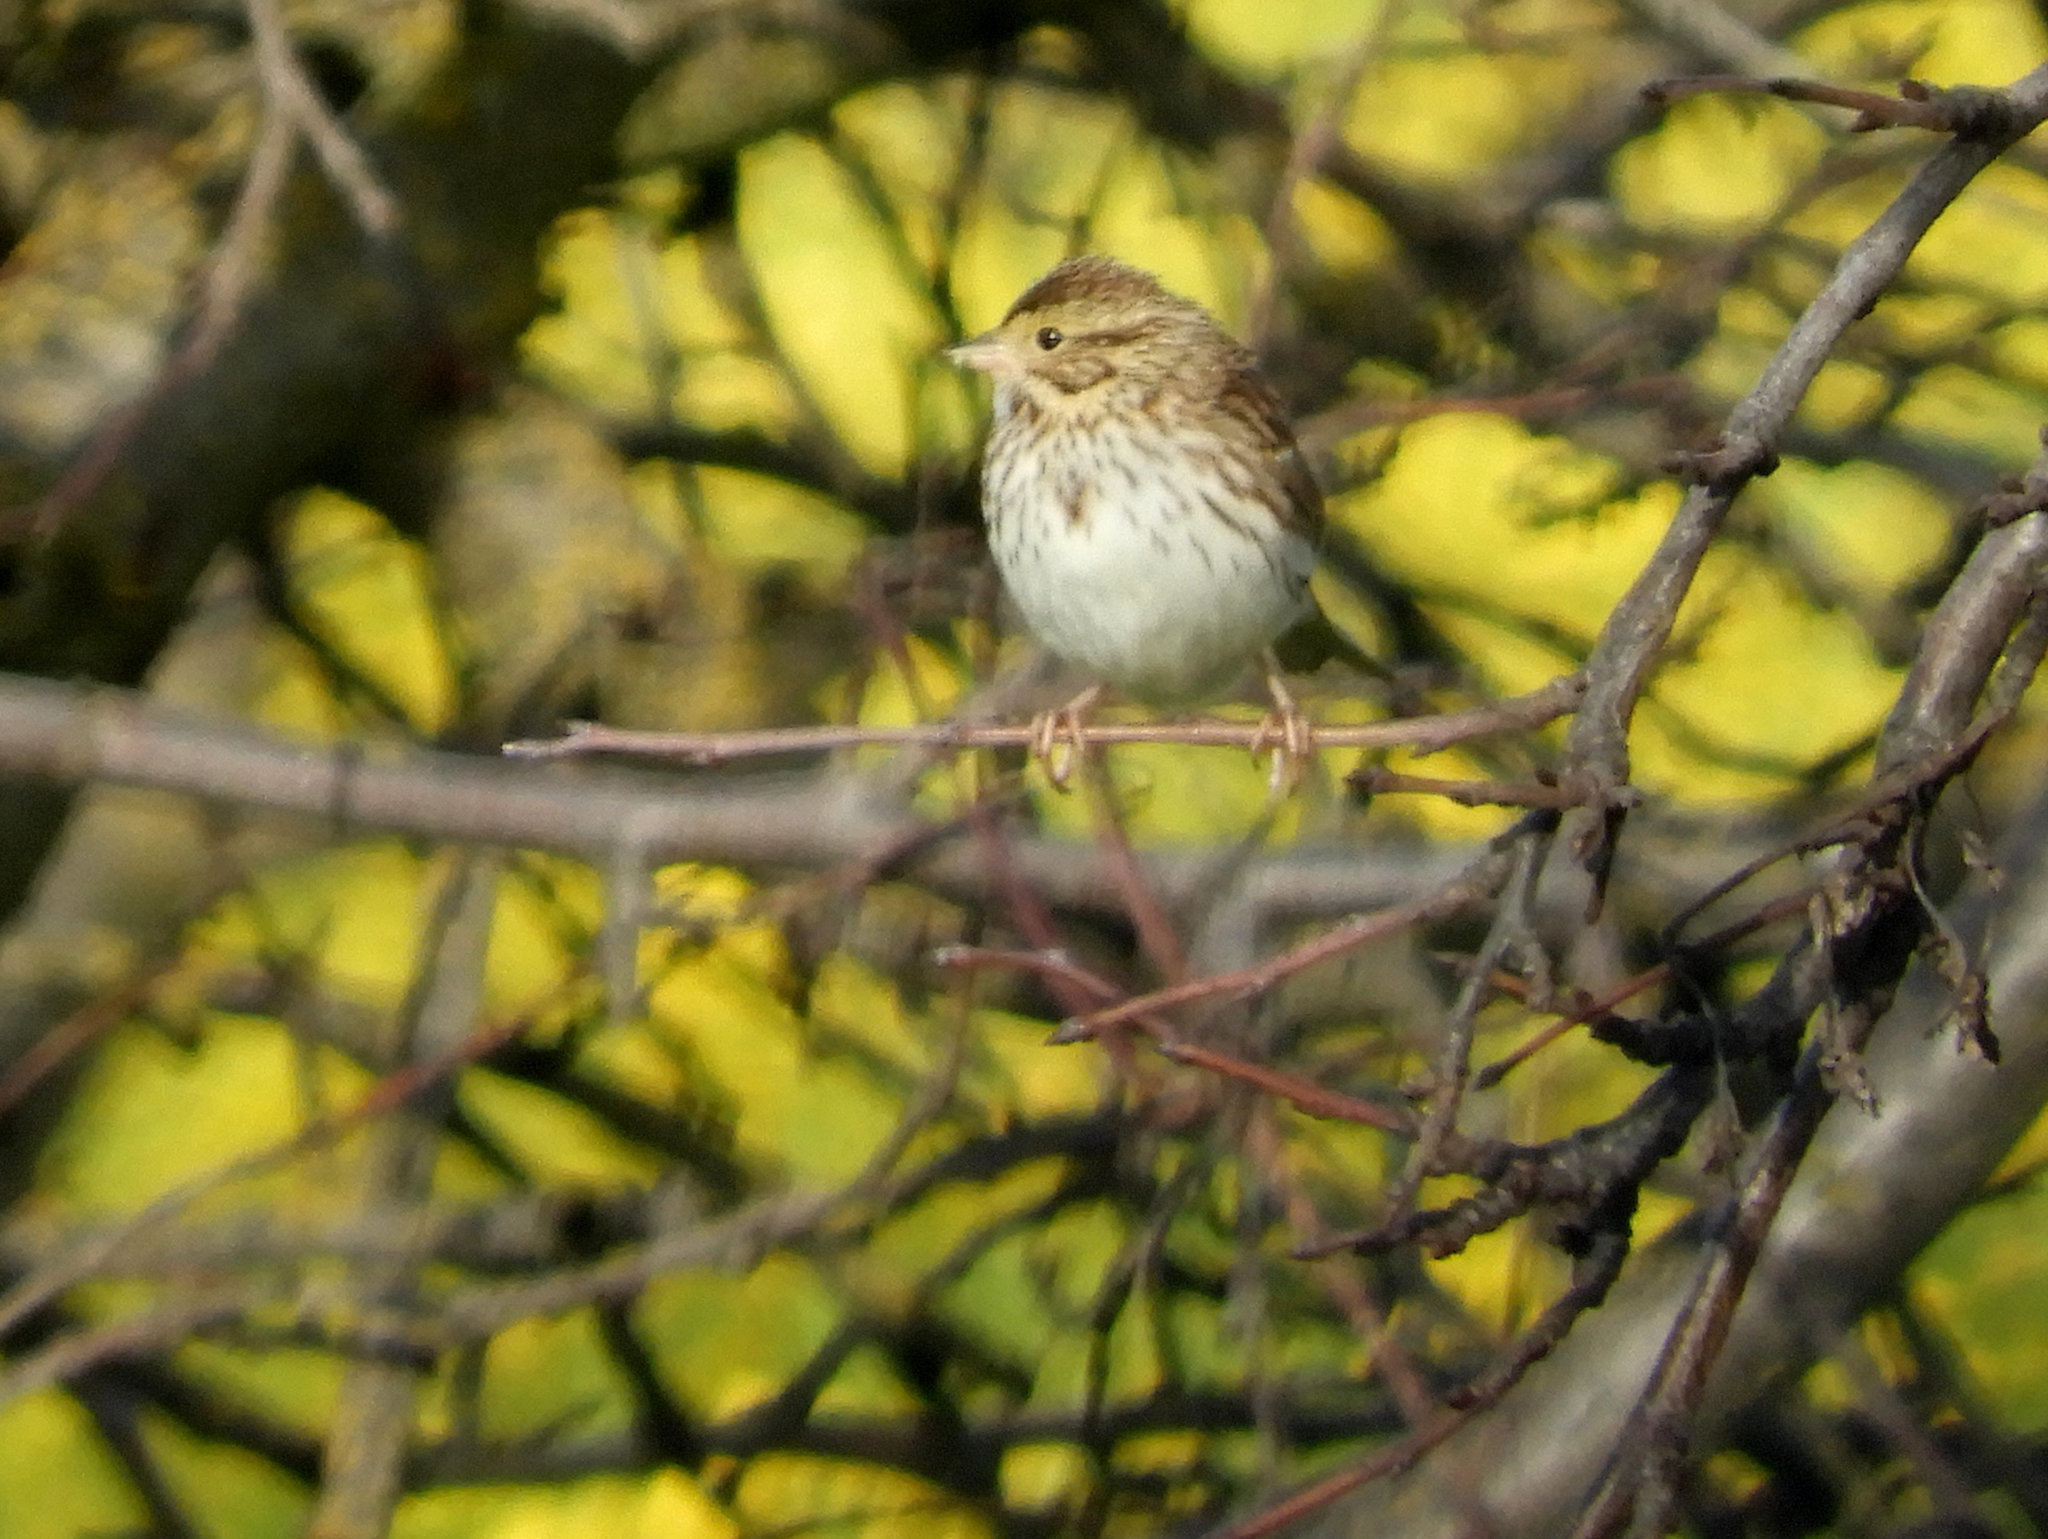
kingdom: Animalia
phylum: Chordata
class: Aves
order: Passeriformes
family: Passerellidae
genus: Passerculus
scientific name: Passerculus sandwichensis
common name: Savannah sparrow
